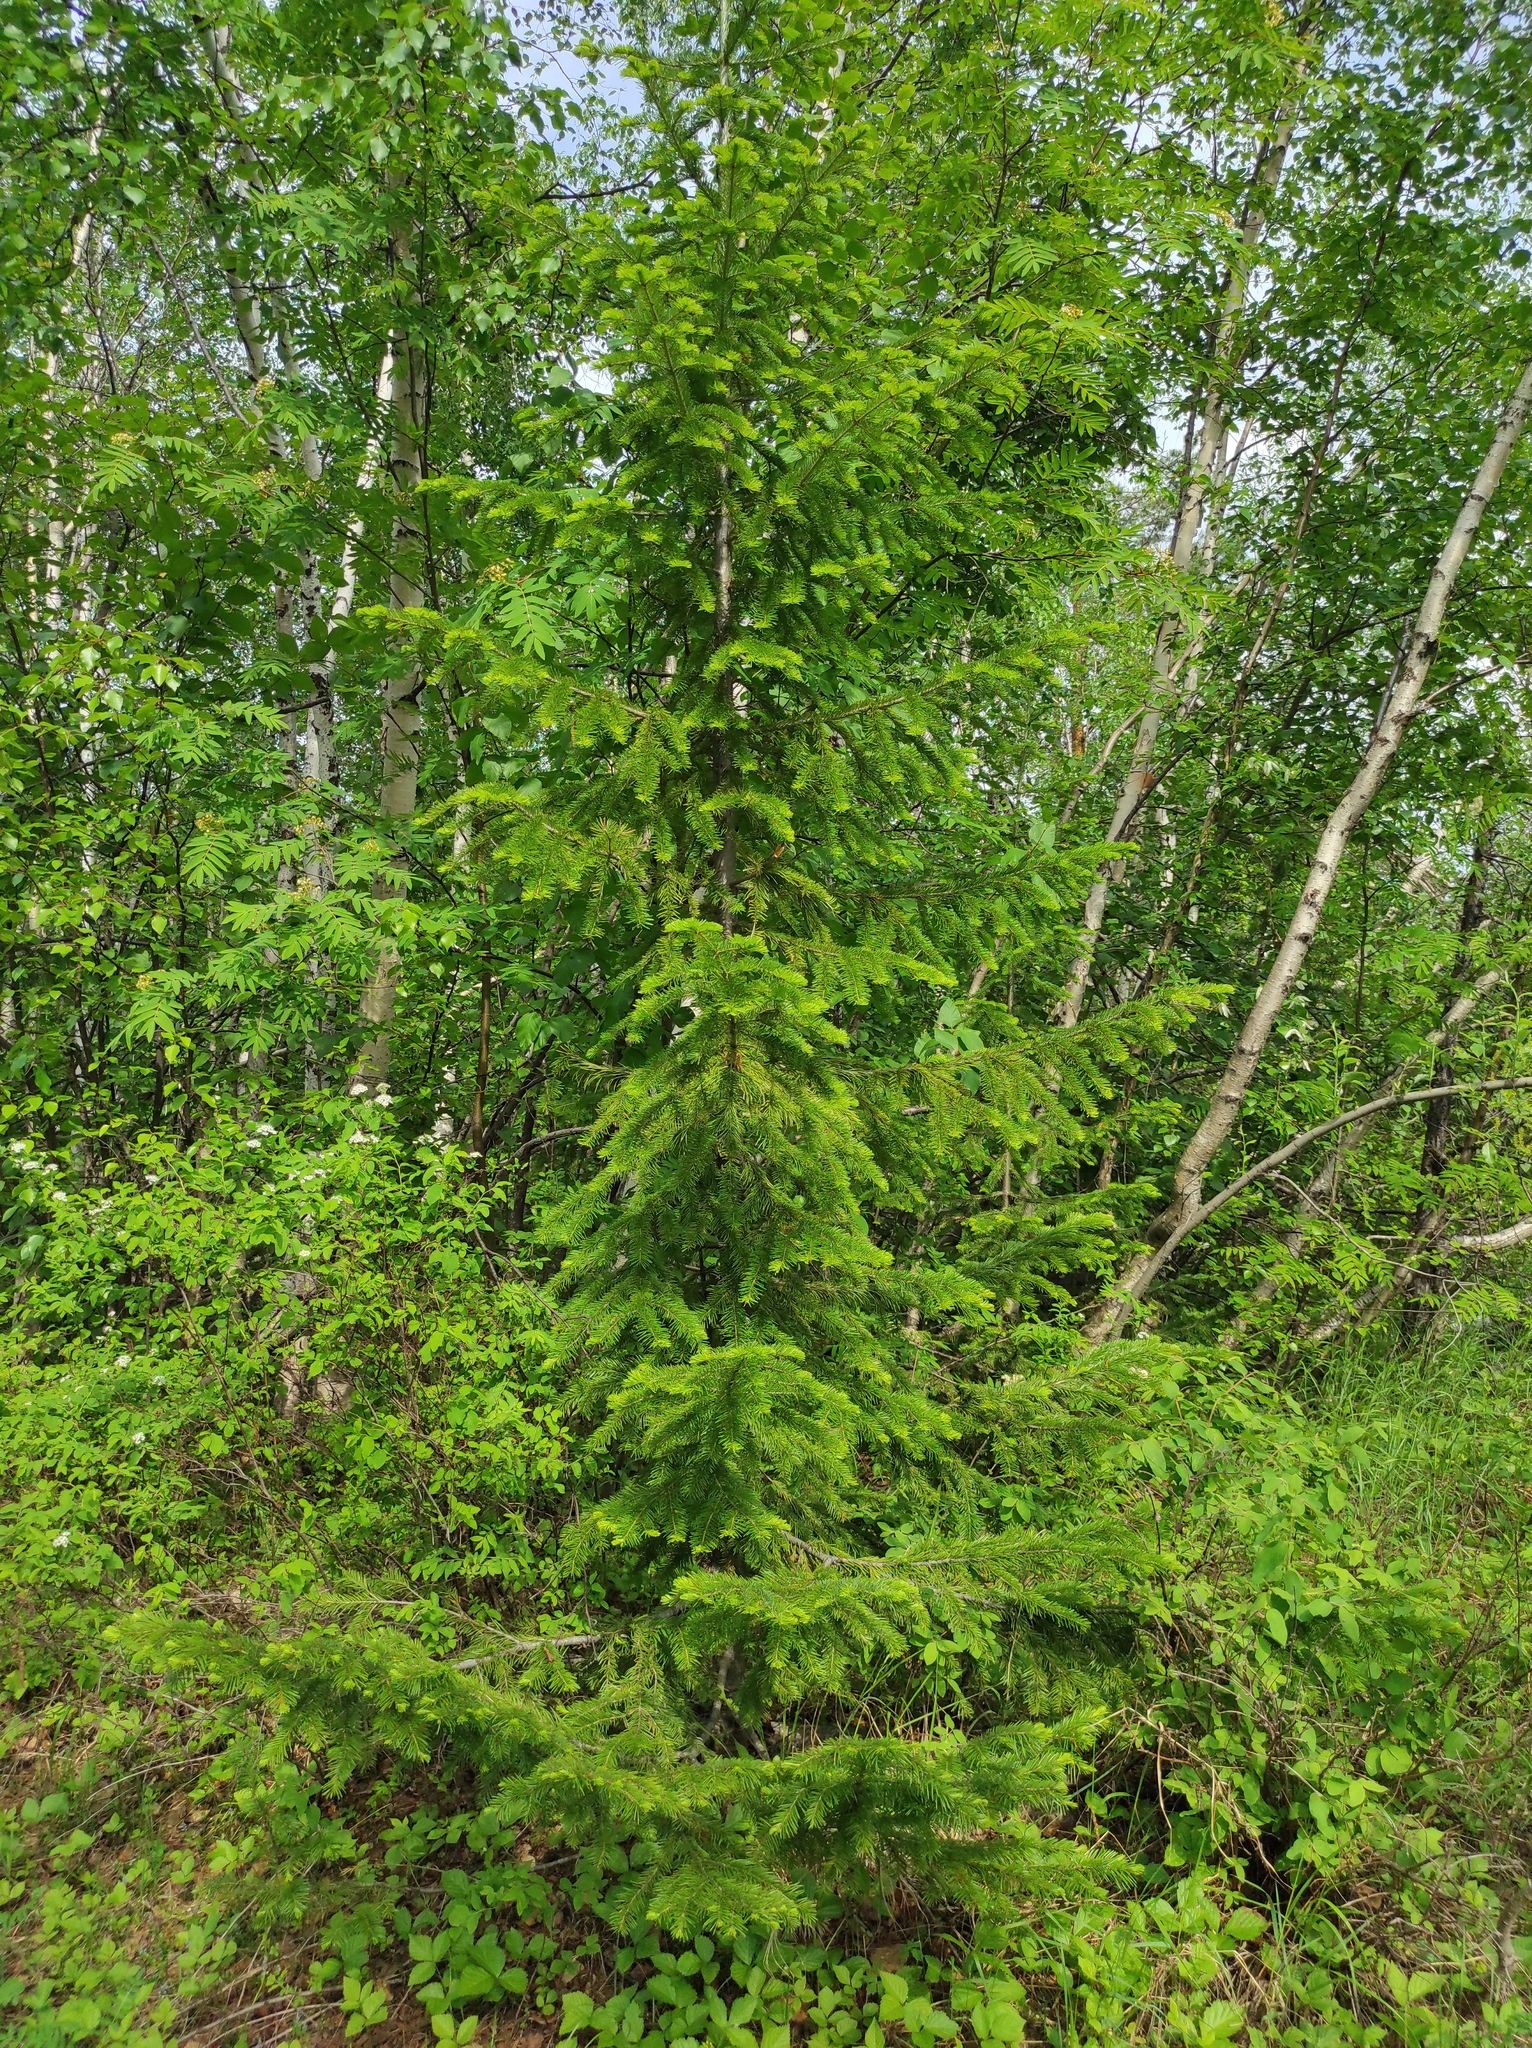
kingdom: Plantae
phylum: Tracheophyta
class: Pinopsida
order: Pinales
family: Pinaceae
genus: Abies
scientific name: Abies sibirica
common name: Siberian fir
